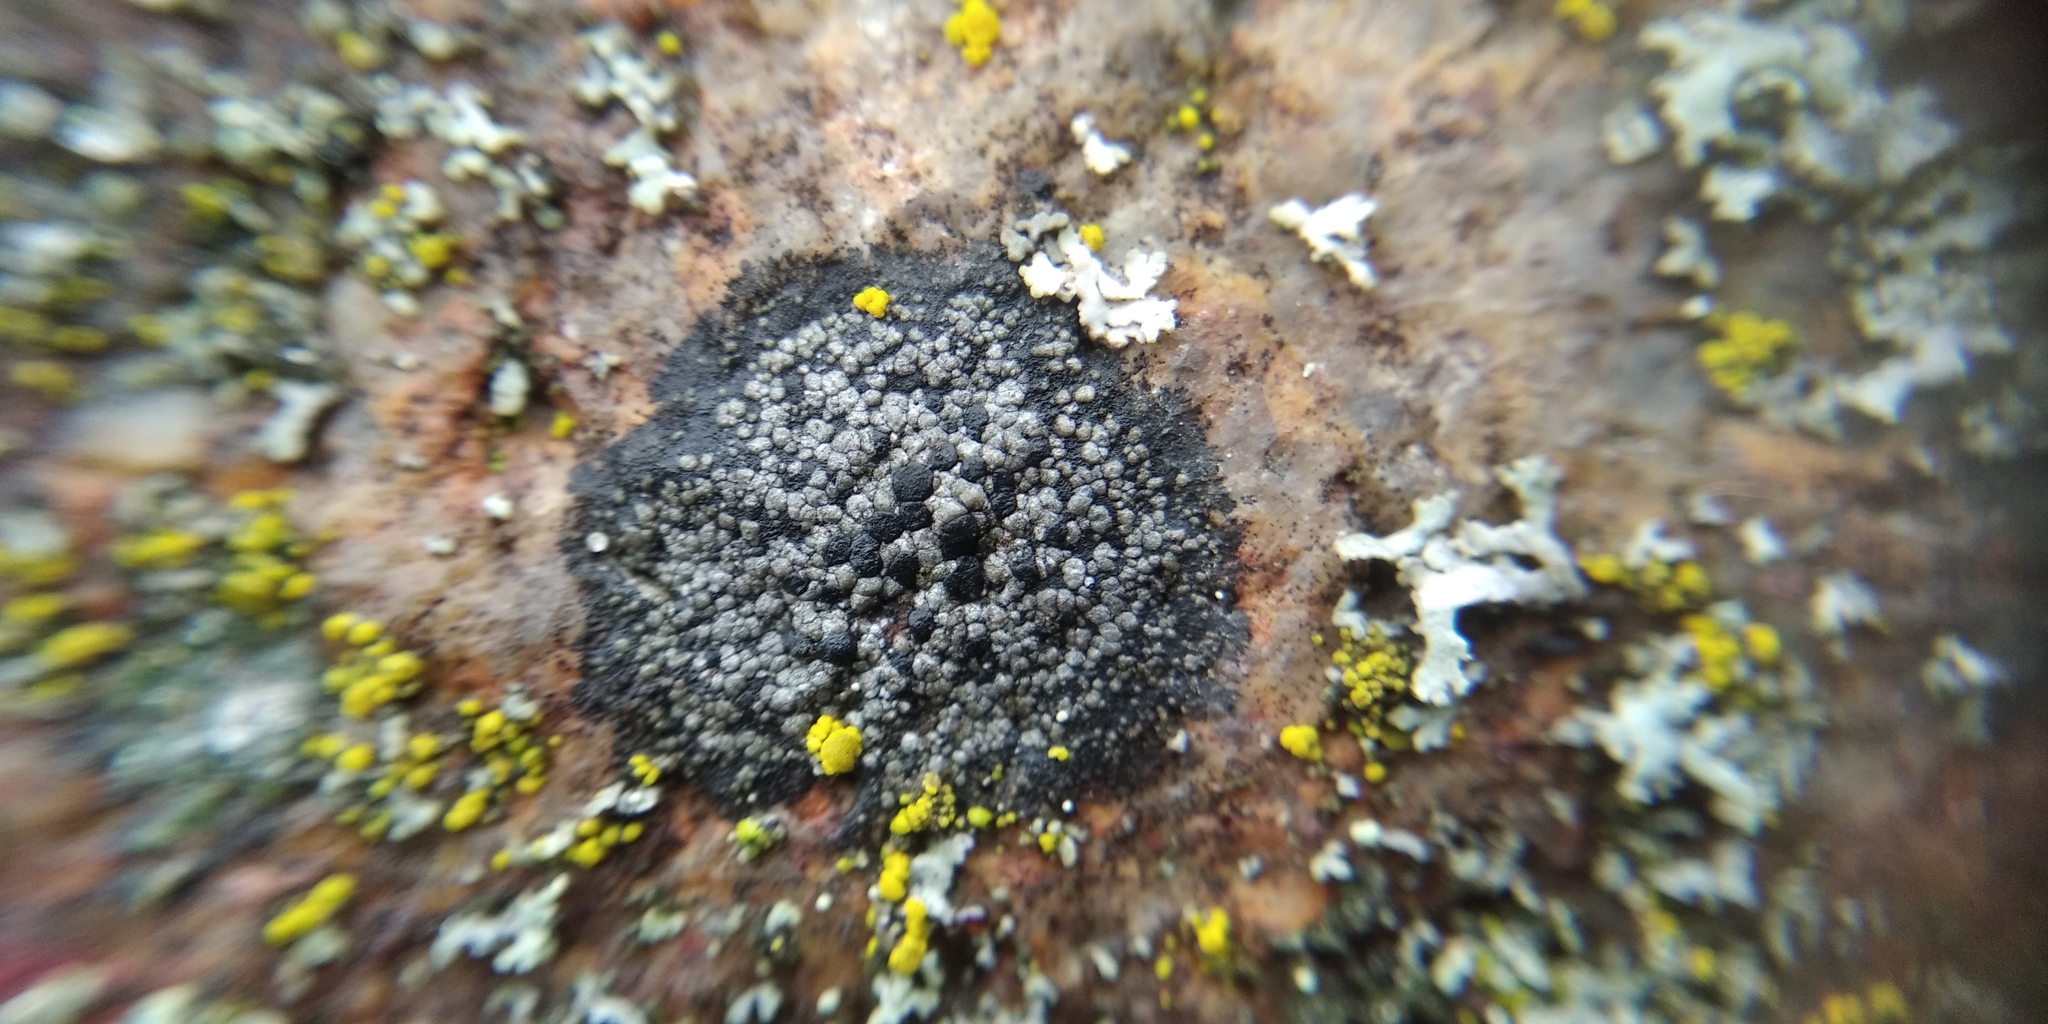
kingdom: Fungi
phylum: Ascomycota
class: Lecanoromycetes
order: Rhizocarpales
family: Rhizocarpaceae
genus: Rhizocarpon
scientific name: Rhizocarpon distinctum
